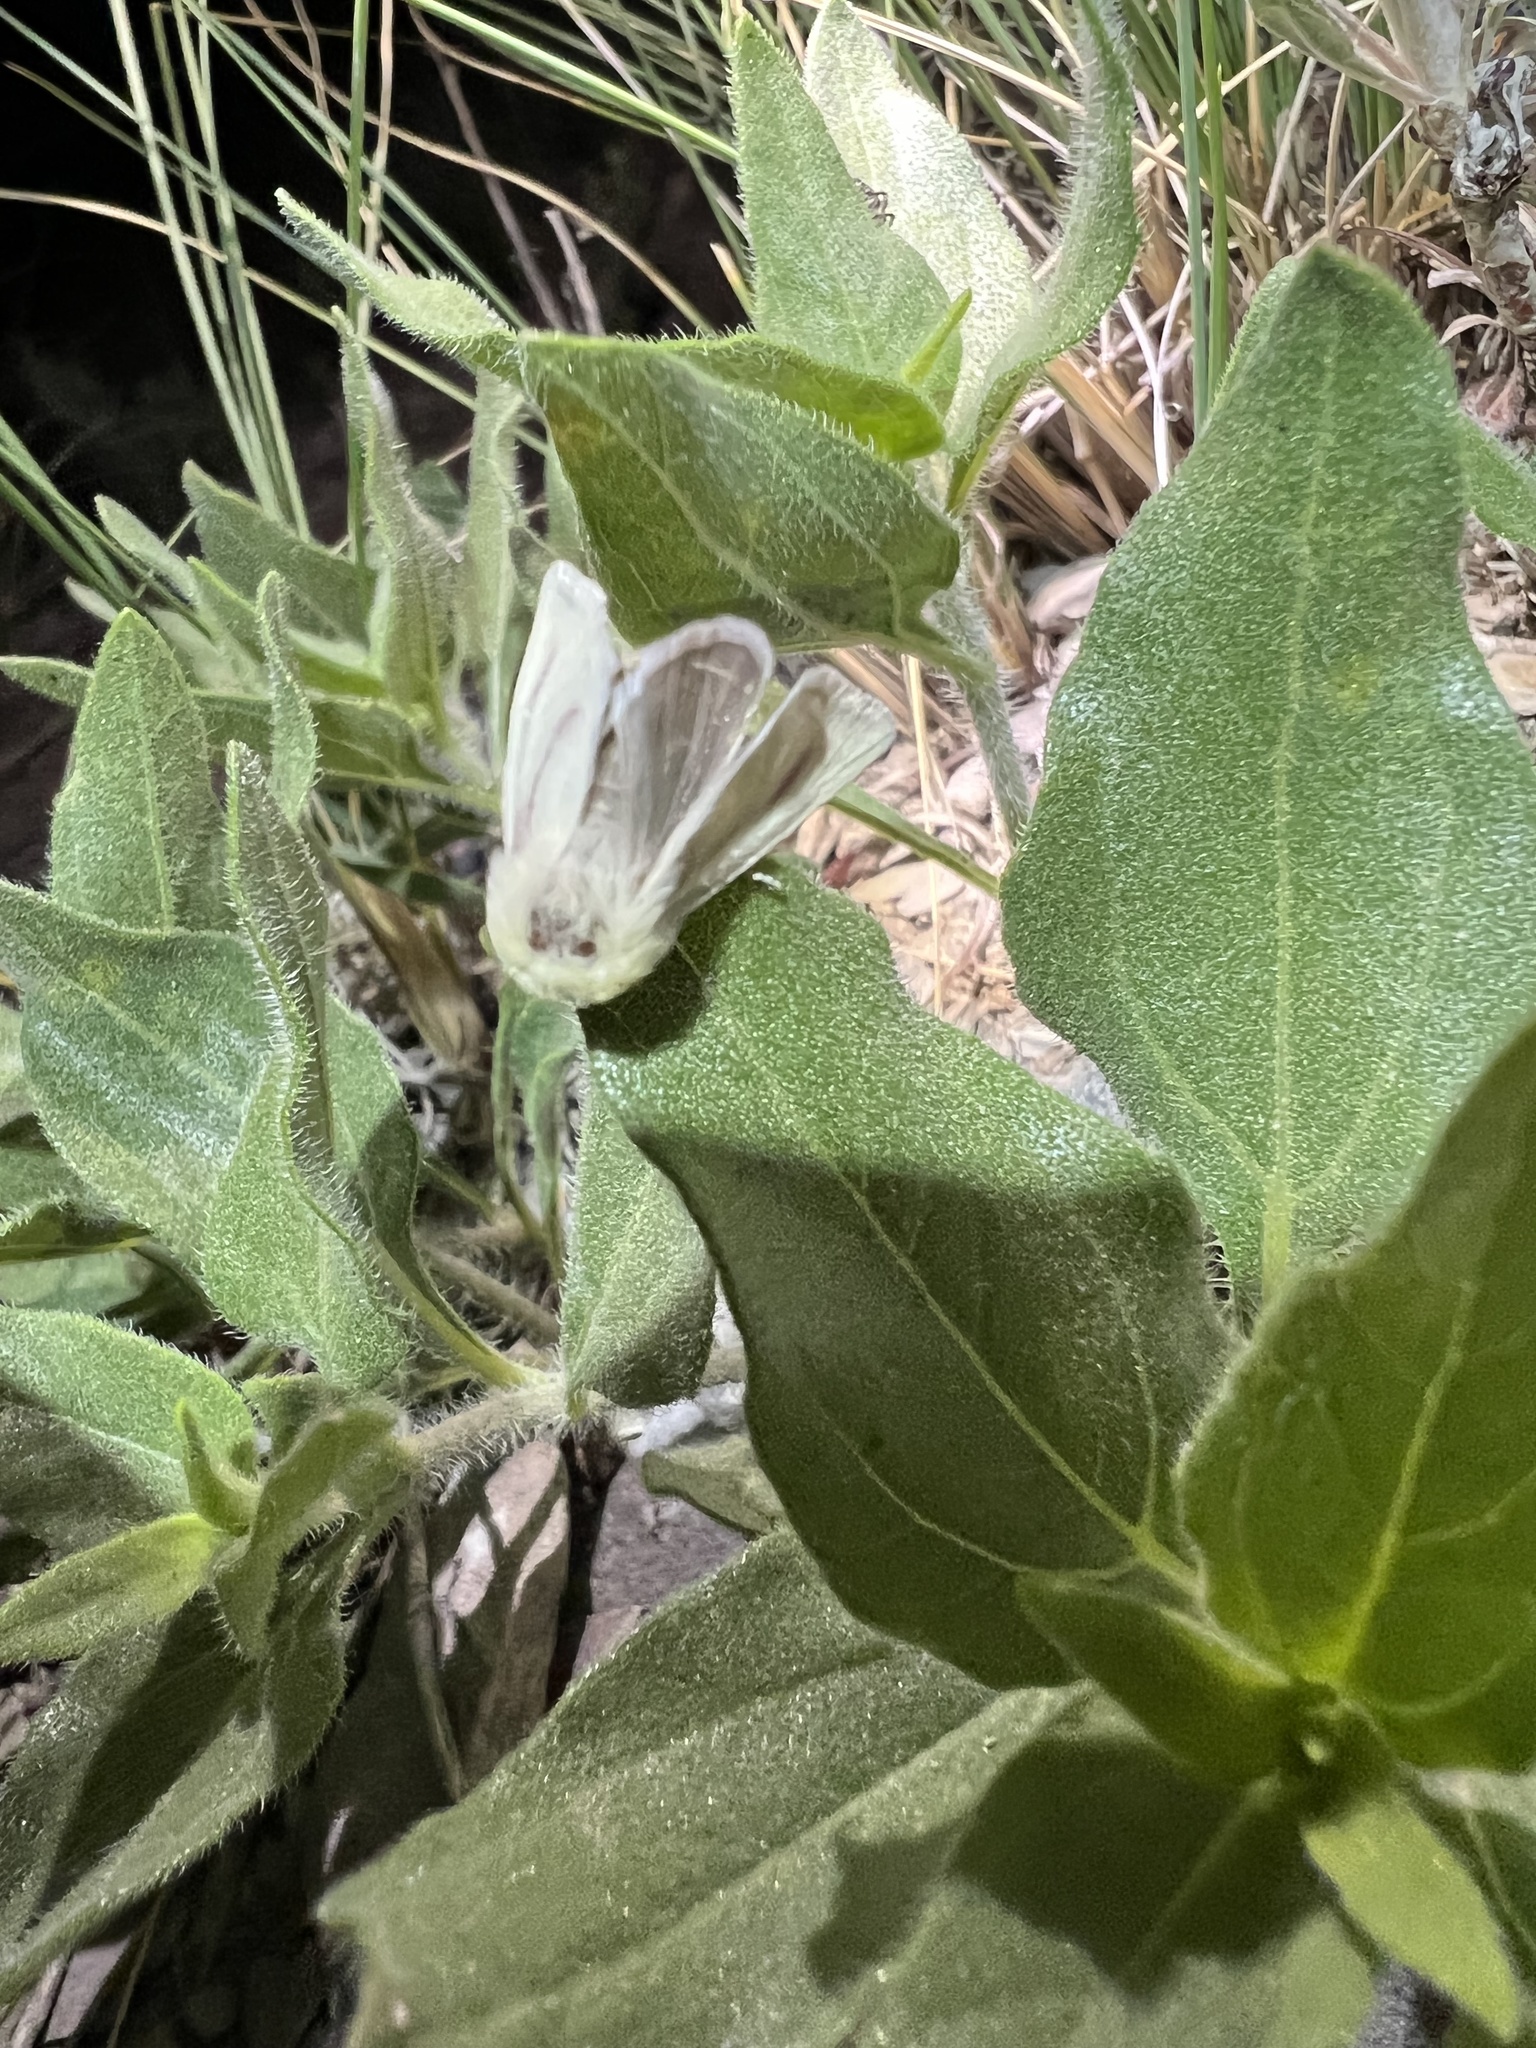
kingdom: Animalia
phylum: Arthropoda
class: Insecta
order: Lepidoptera
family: Noctuidae
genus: Schinia
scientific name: Schinia snowi
